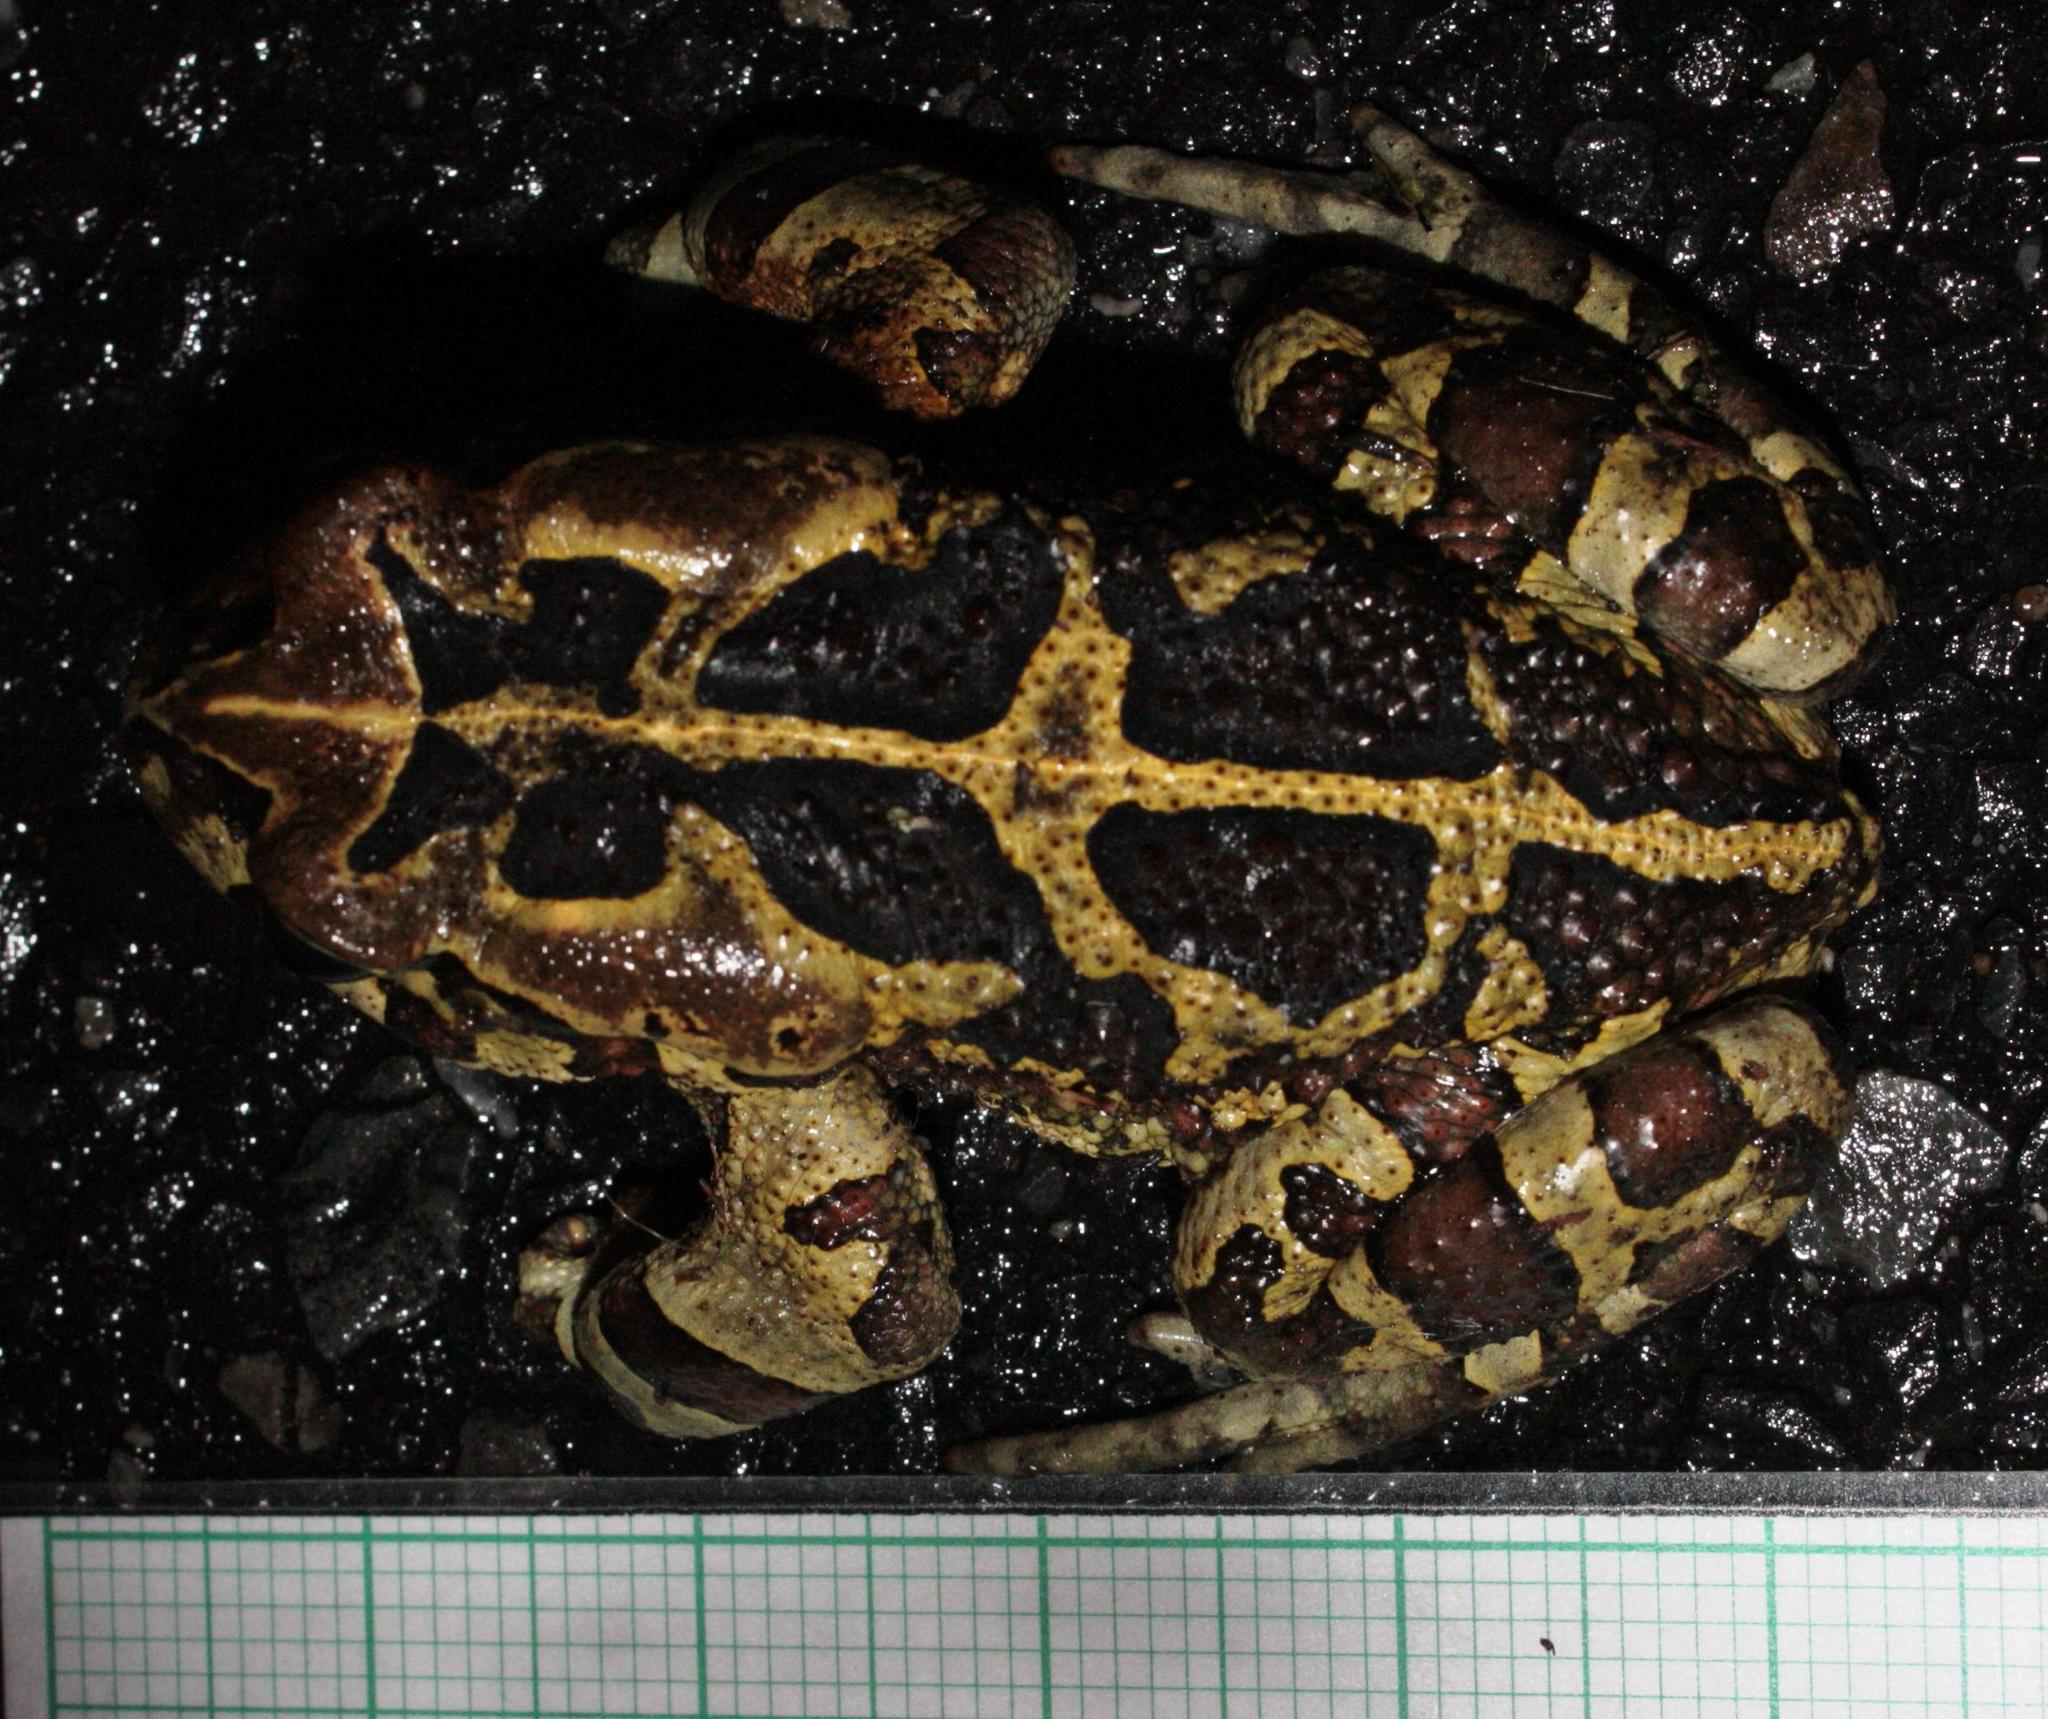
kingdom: Animalia
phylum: Chordata
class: Amphibia
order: Anura
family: Bufonidae
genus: Sclerophrys
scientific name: Sclerophrys pantherina
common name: Panther toad
